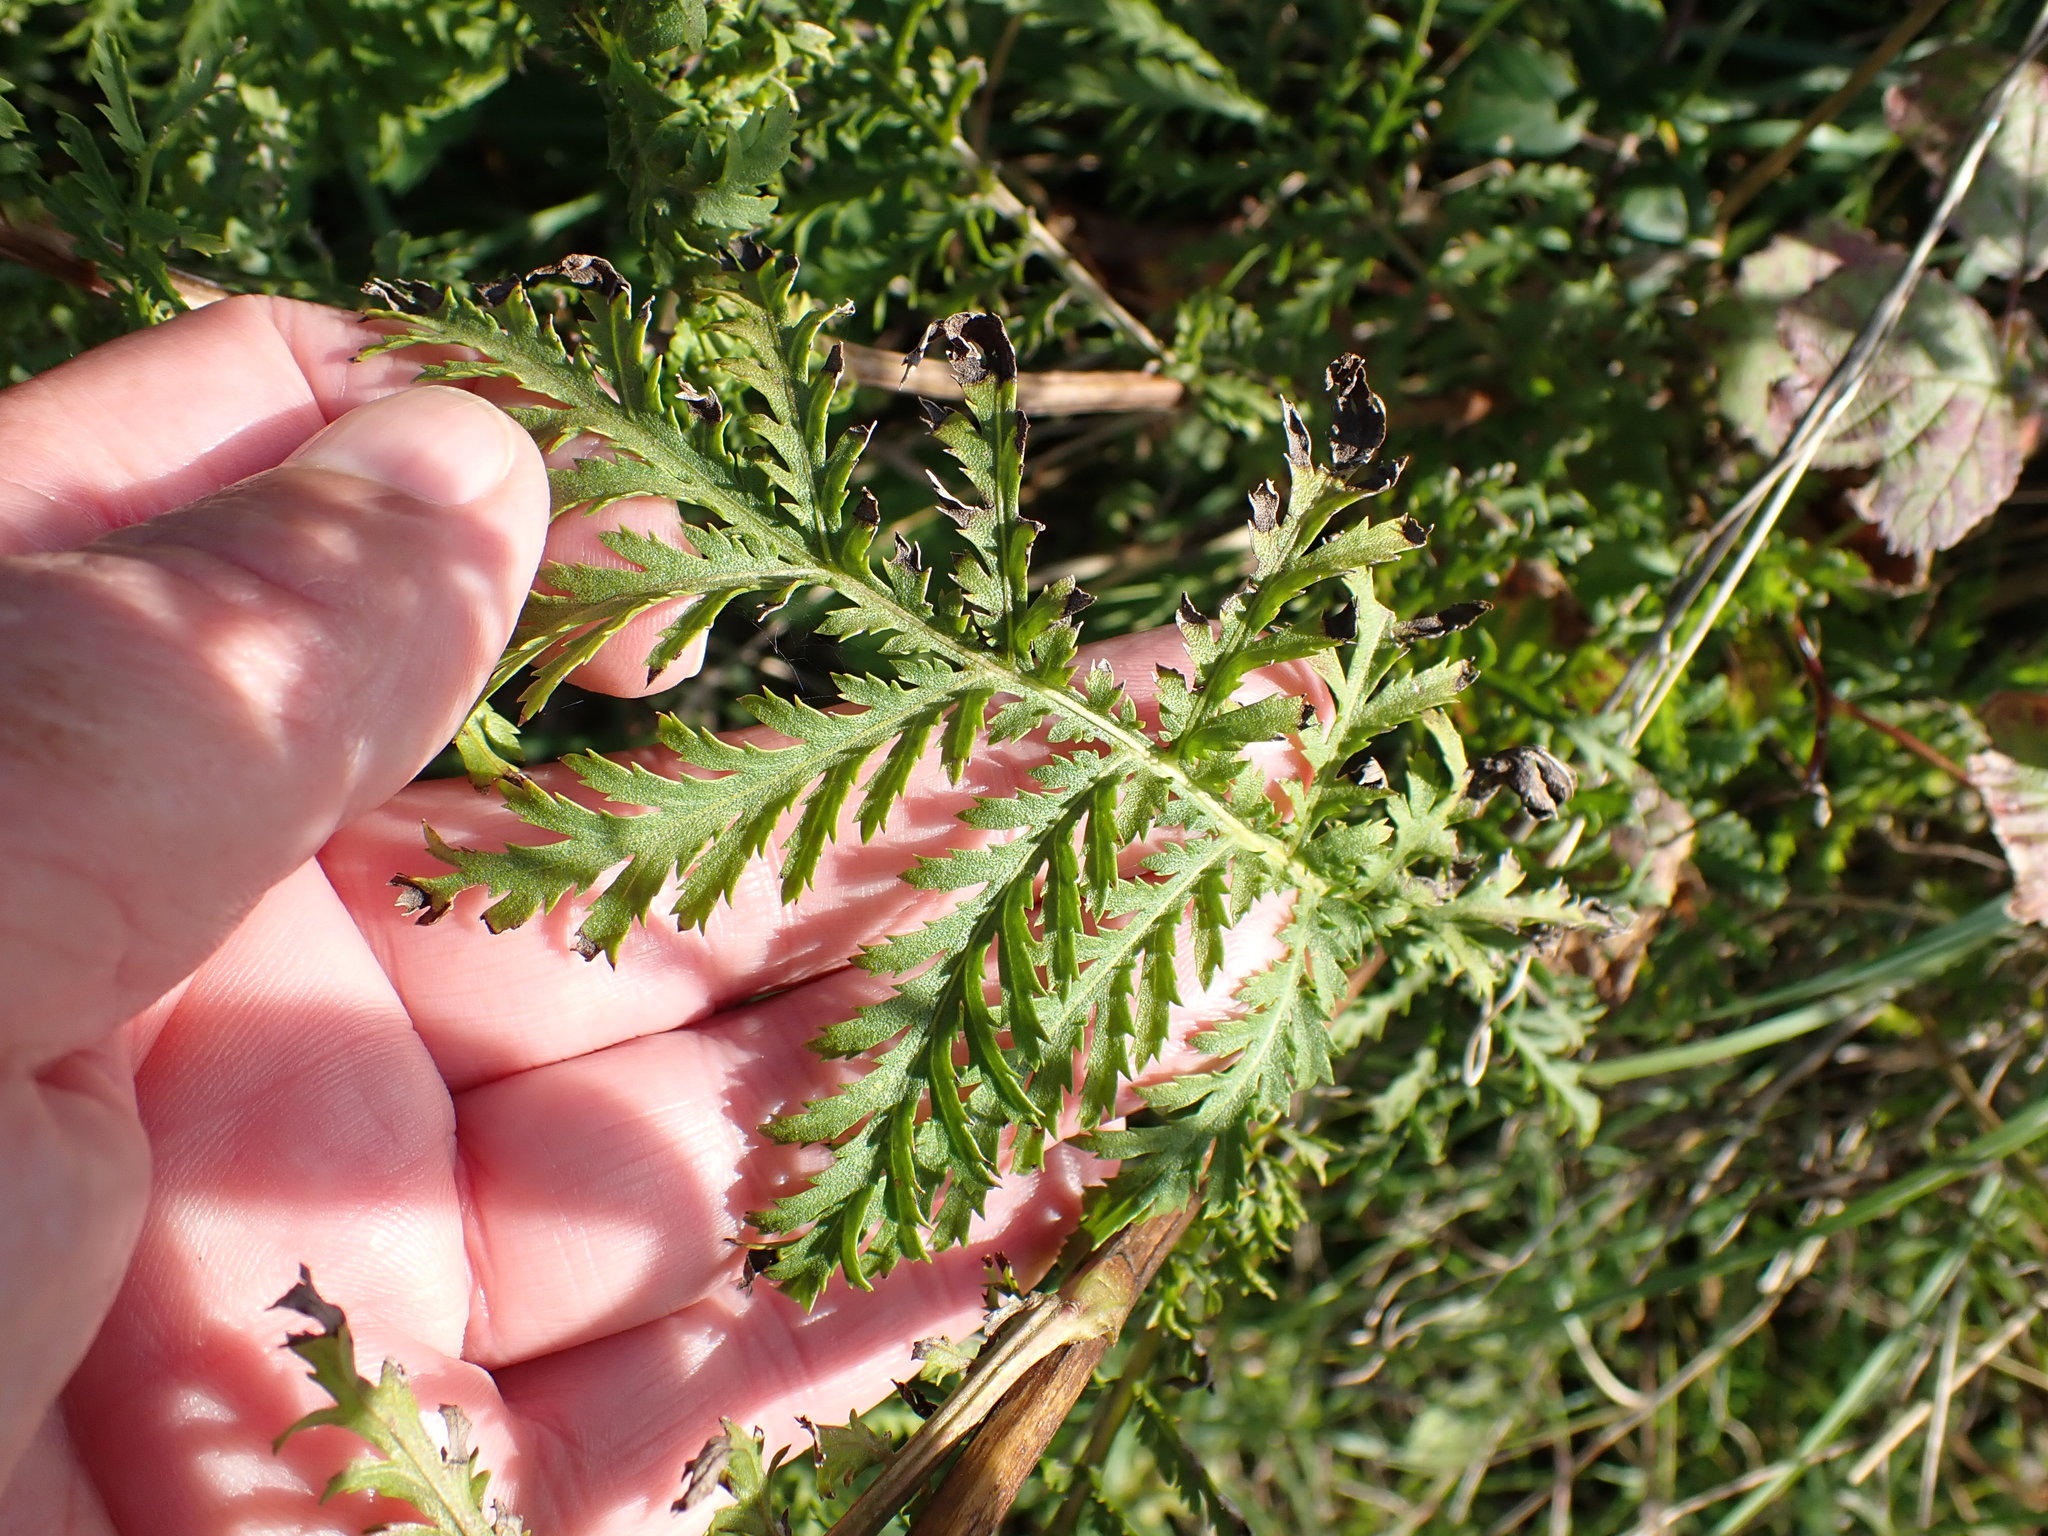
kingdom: Plantae
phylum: Tracheophyta
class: Magnoliopsida
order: Asterales
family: Asteraceae
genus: Tanacetum
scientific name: Tanacetum vulgare
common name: Common tansy
